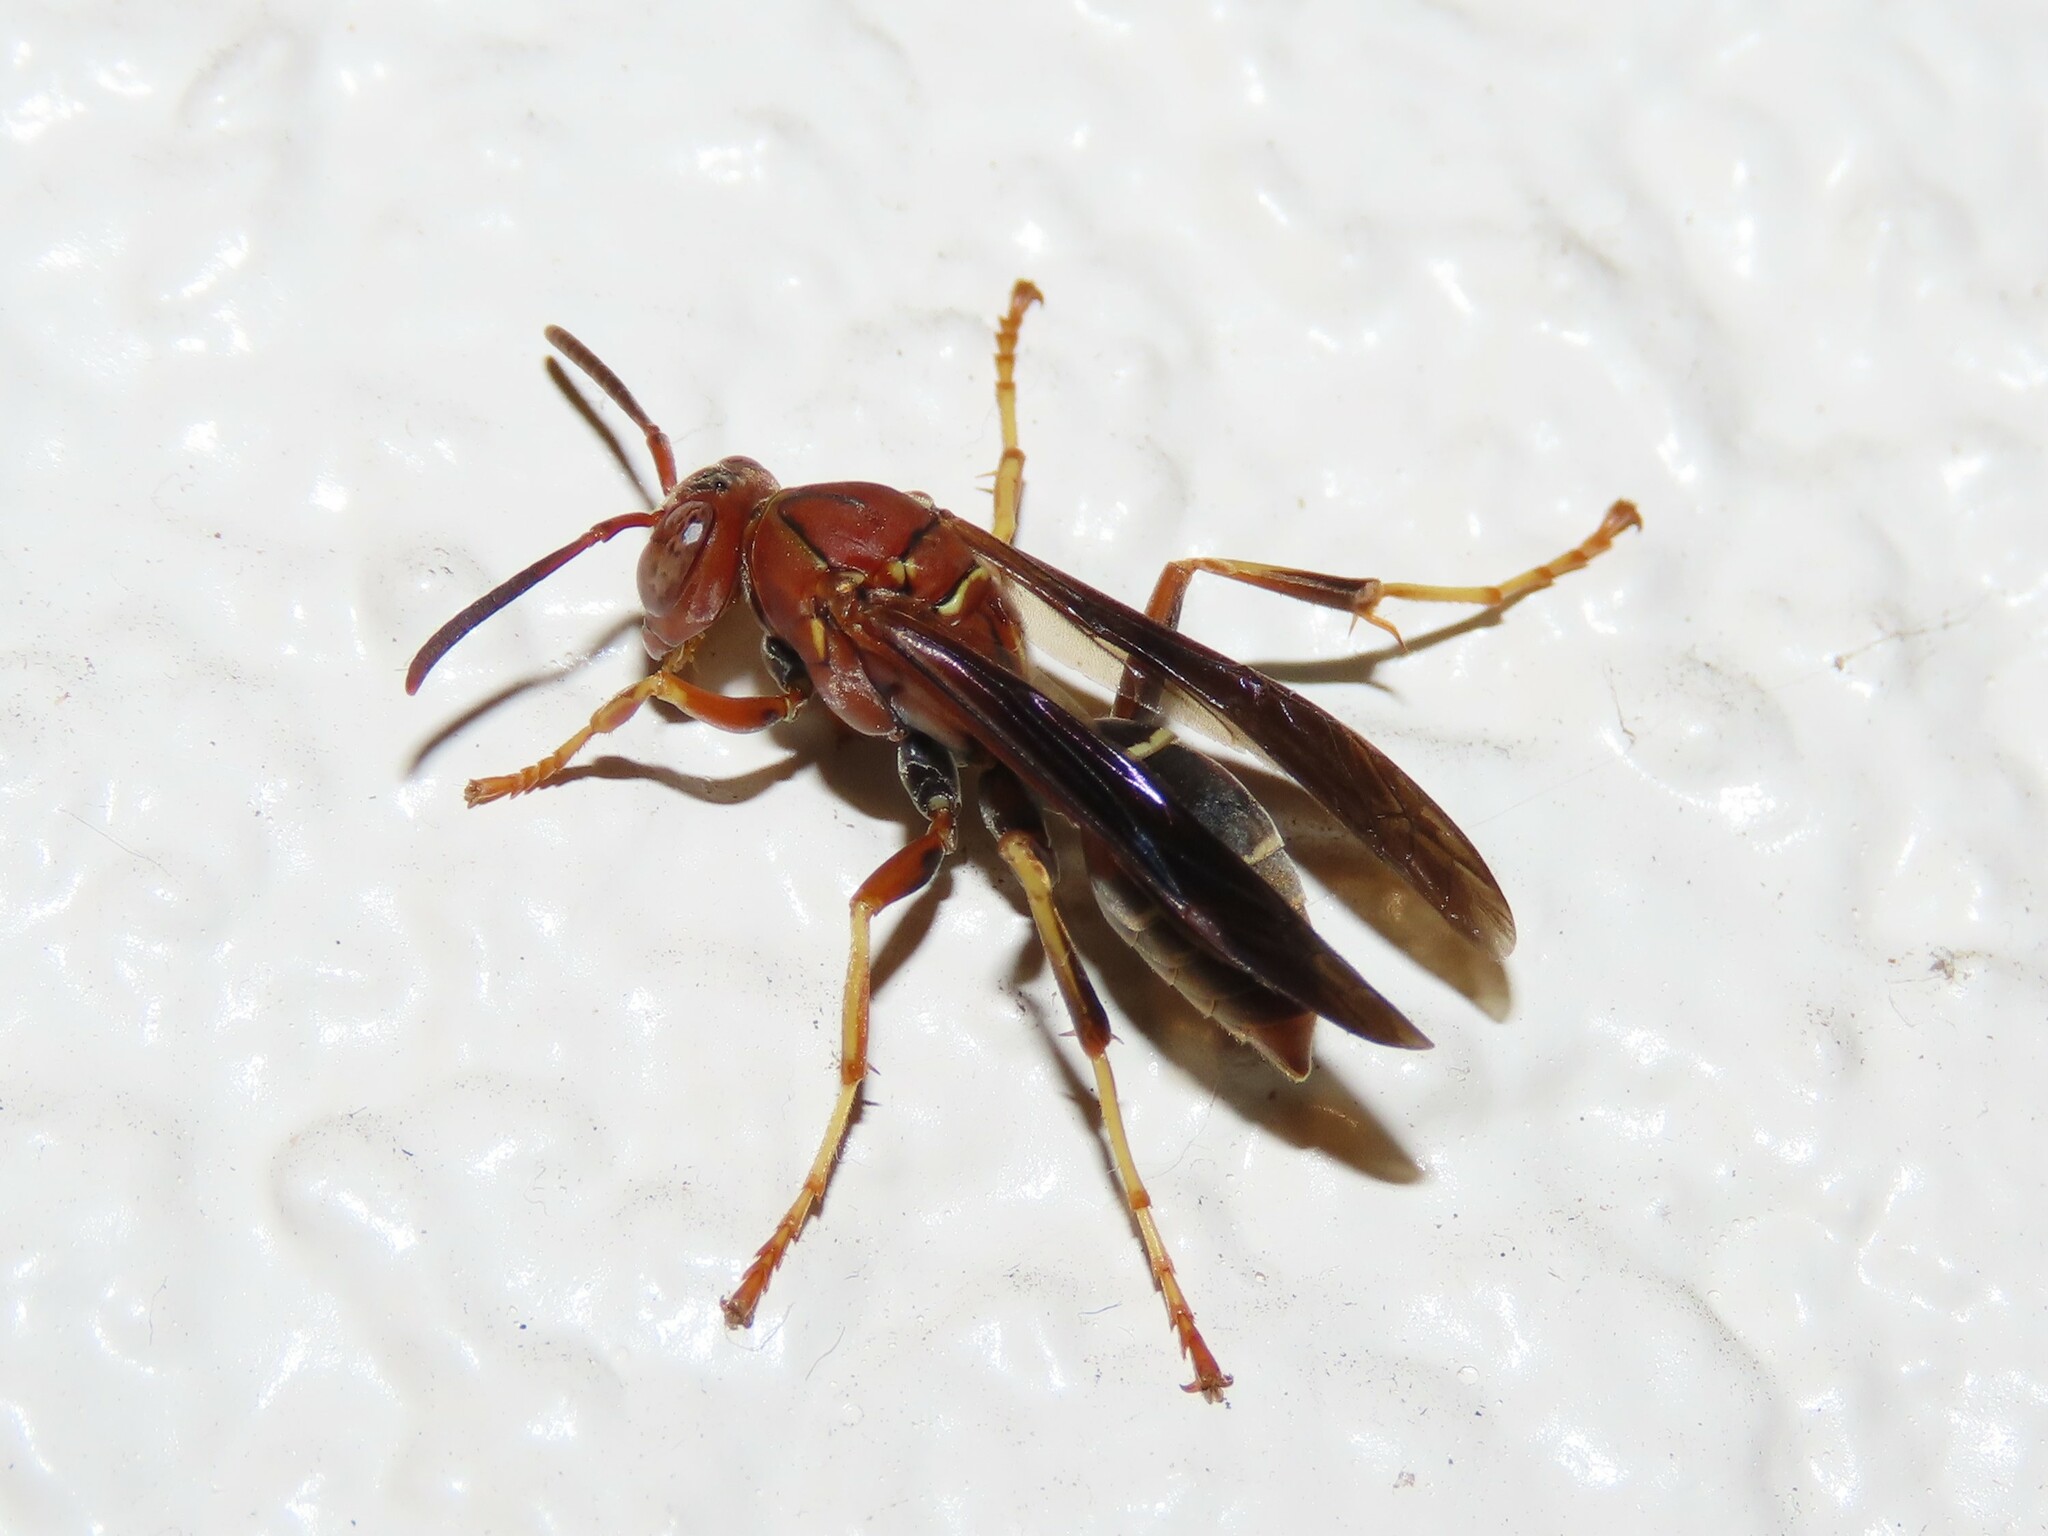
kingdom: Animalia
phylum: Arthropoda
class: Insecta
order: Hymenoptera
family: Eumenidae
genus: Polistes
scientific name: Polistes fuscatus
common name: Dark paper wasp
